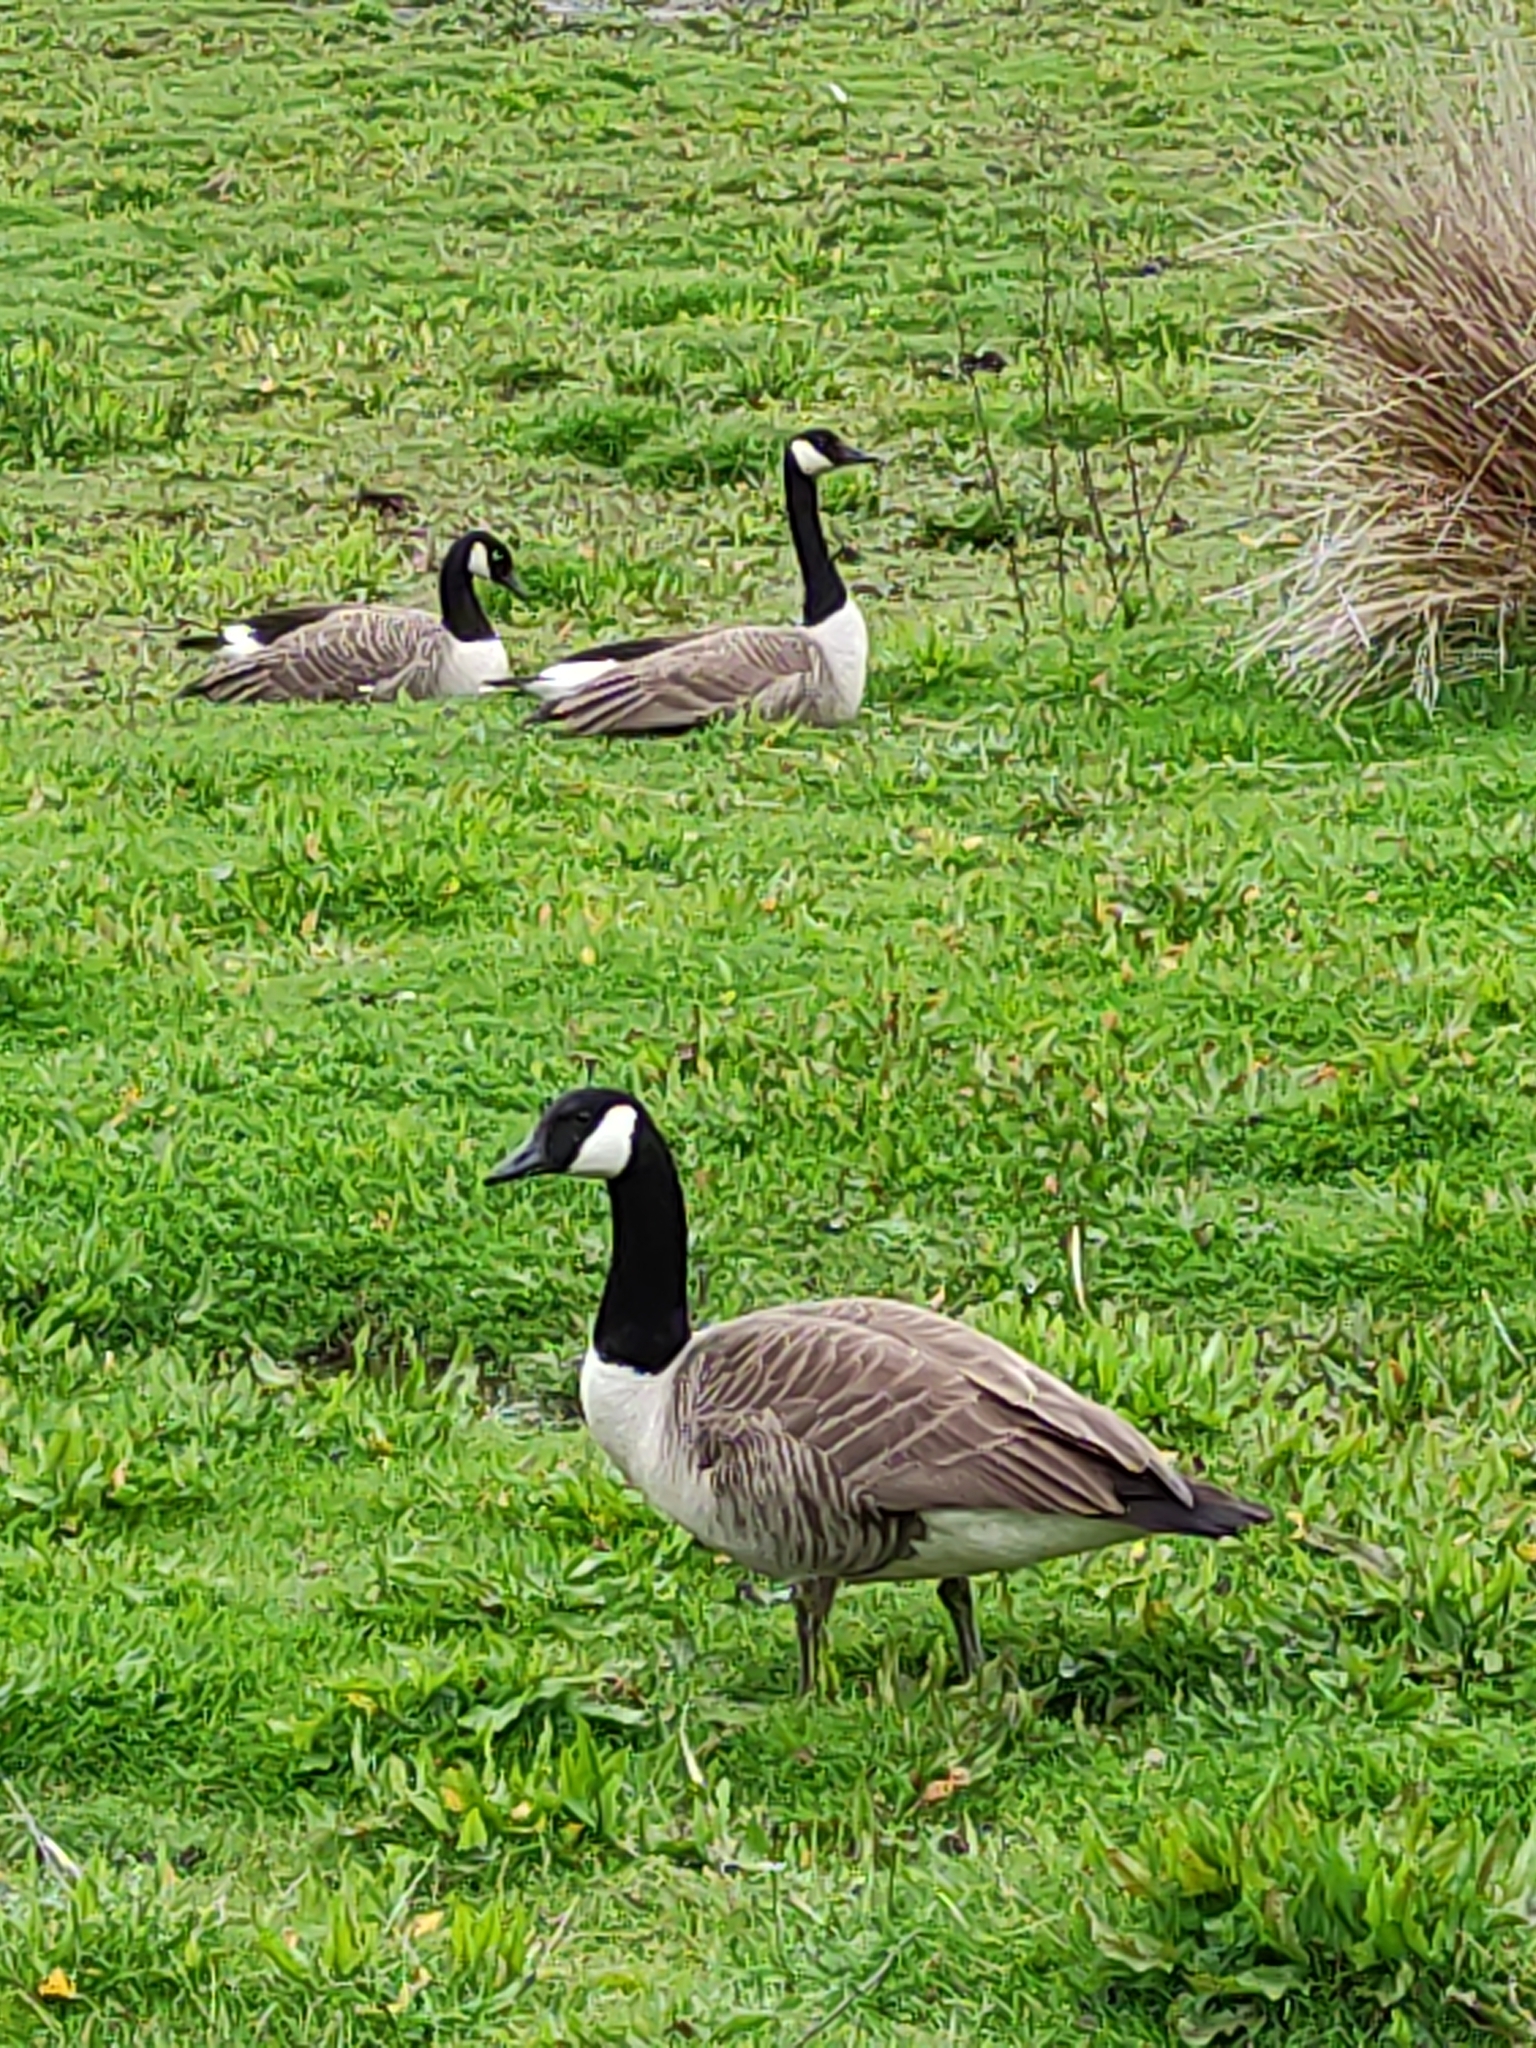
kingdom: Animalia
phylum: Chordata
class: Aves
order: Anseriformes
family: Anatidae
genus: Branta
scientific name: Branta canadensis
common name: Canada goose
